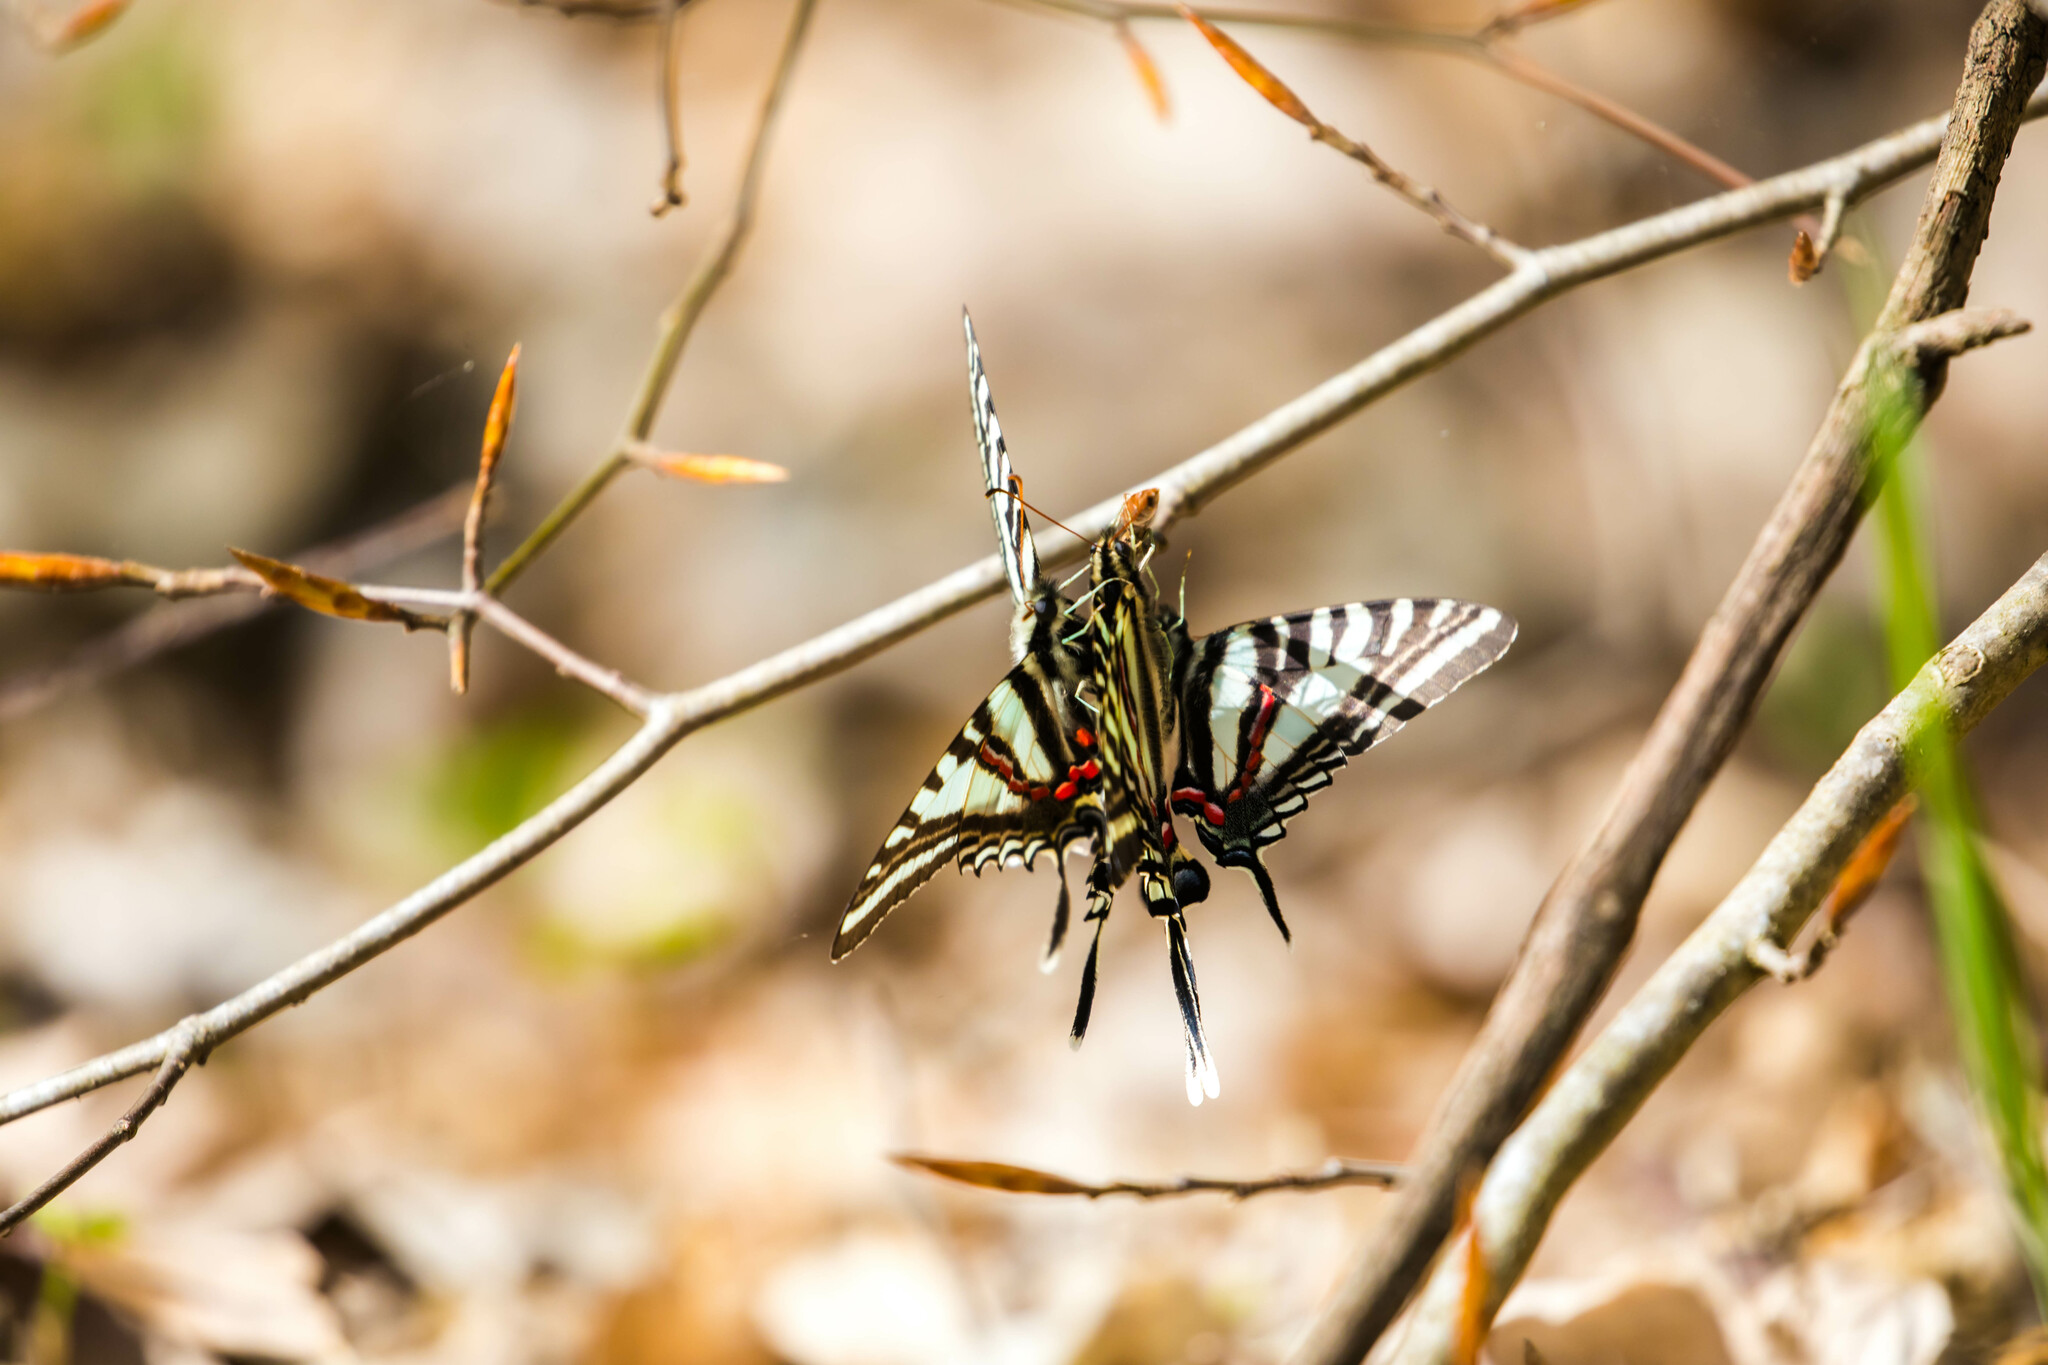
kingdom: Animalia
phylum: Arthropoda
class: Insecta
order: Lepidoptera
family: Papilionidae
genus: Protographium
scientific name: Protographium marcellus
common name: Zebra swallowtail
